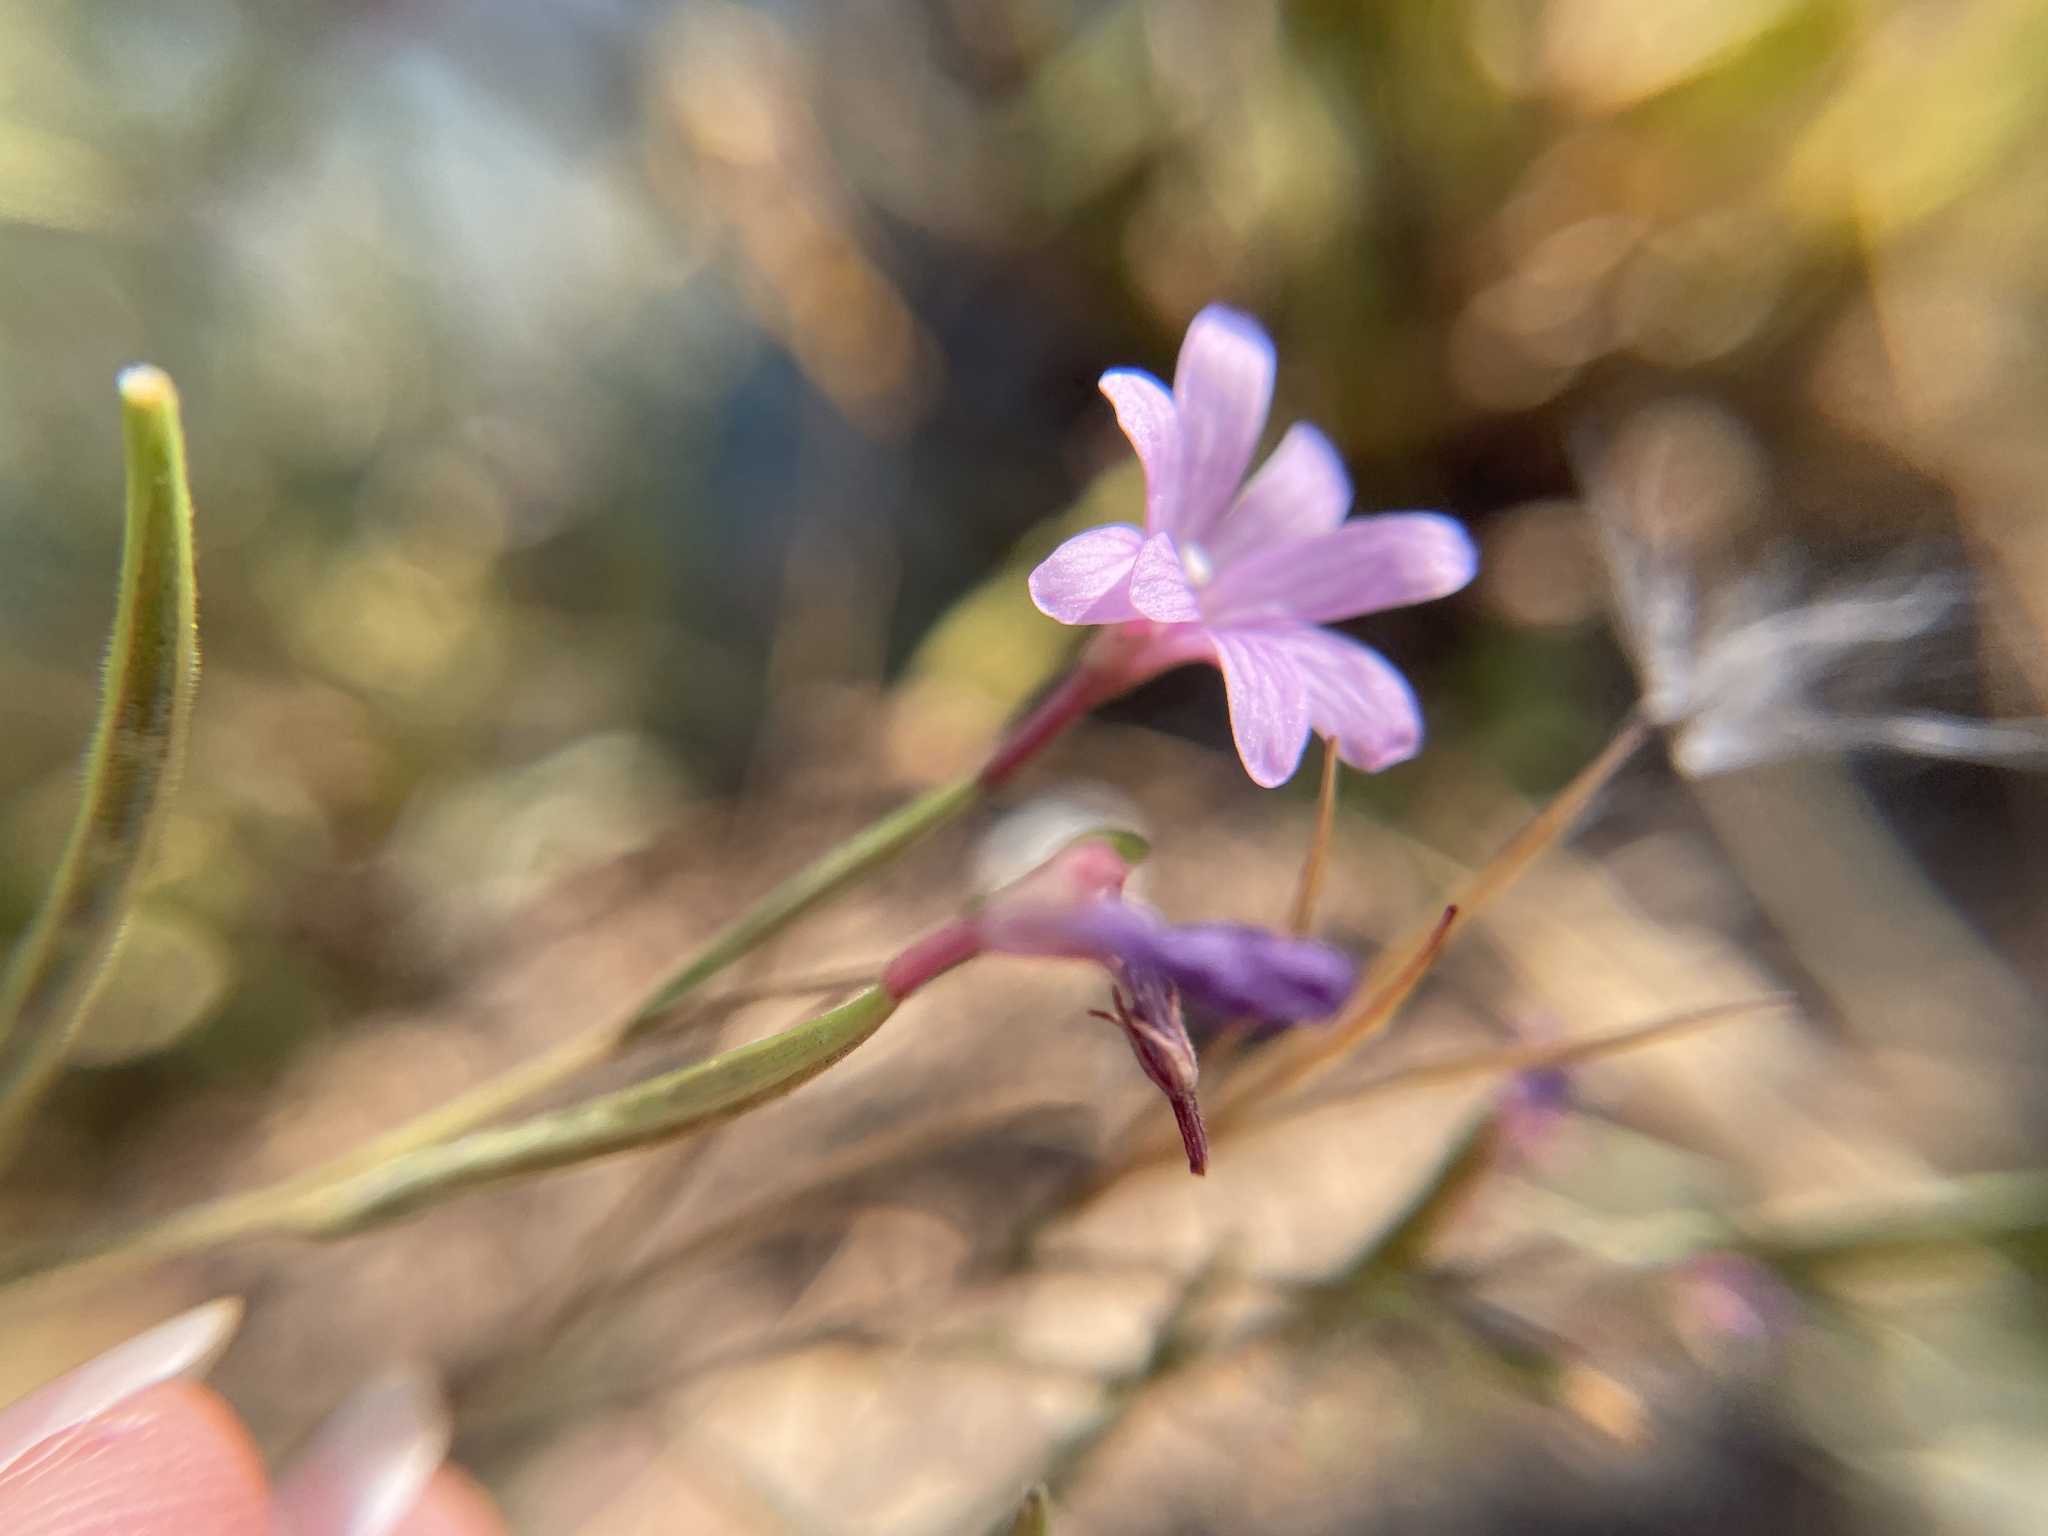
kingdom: Plantae
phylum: Tracheophyta
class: Magnoliopsida
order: Myrtales
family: Onagraceae
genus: Epilobium
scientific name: Epilobium brachycarpum
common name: Annual willowherb
